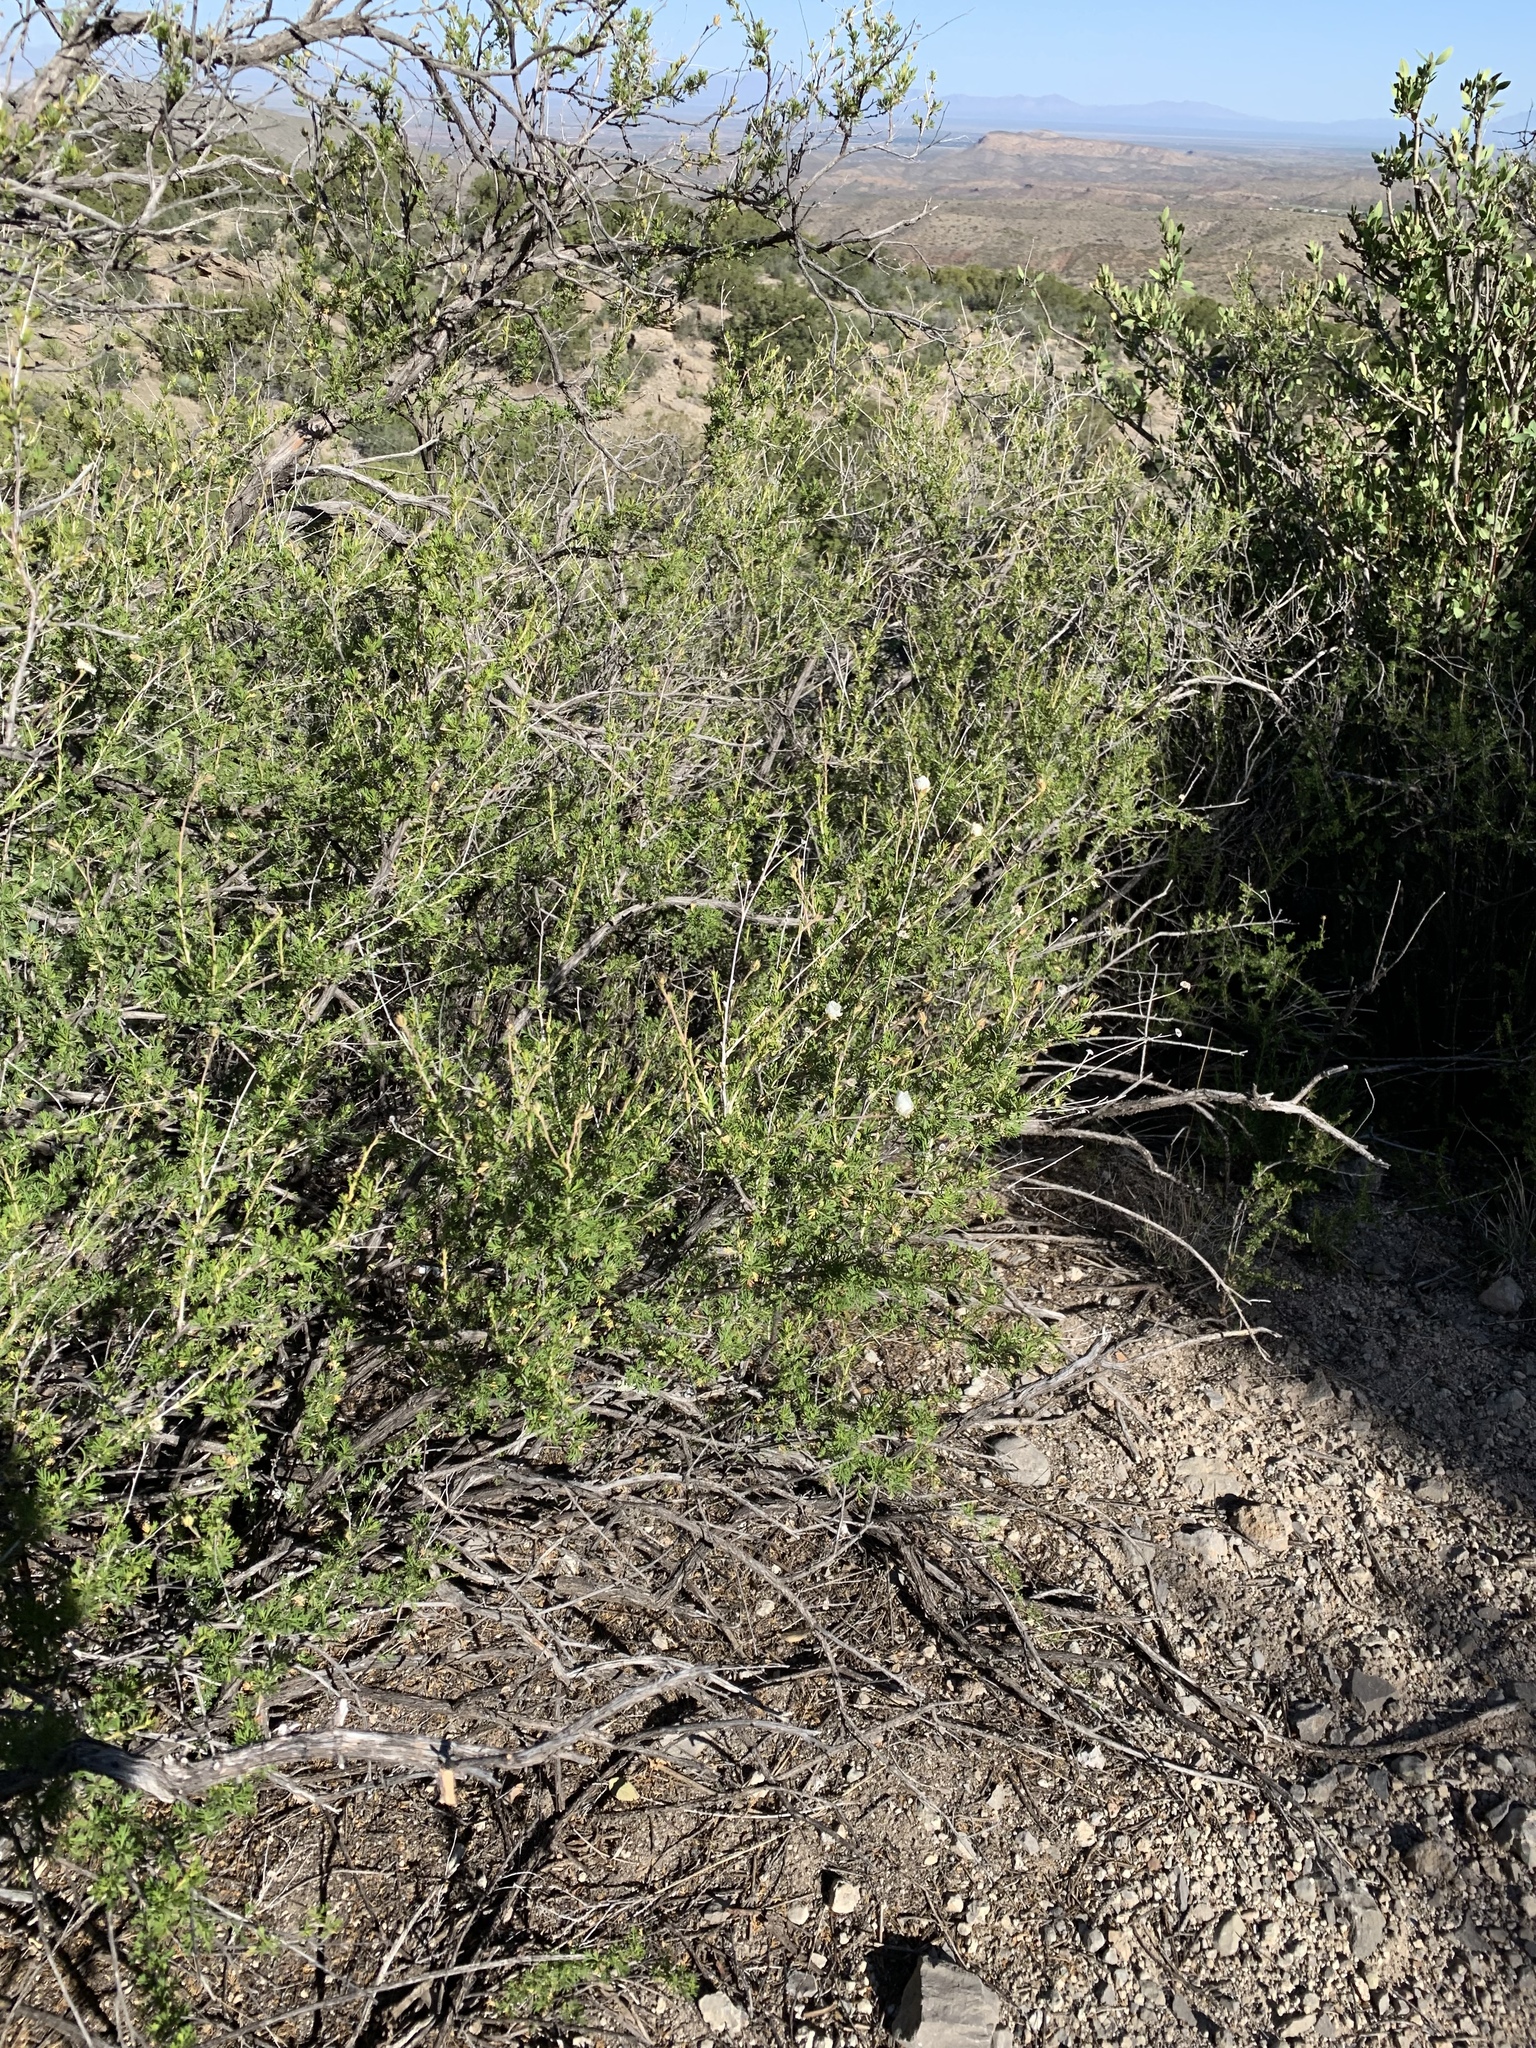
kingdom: Plantae
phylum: Tracheophyta
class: Magnoliopsida
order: Rosales
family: Rosaceae
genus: Fallugia
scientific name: Fallugia paradoxa
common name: Apache-plume
